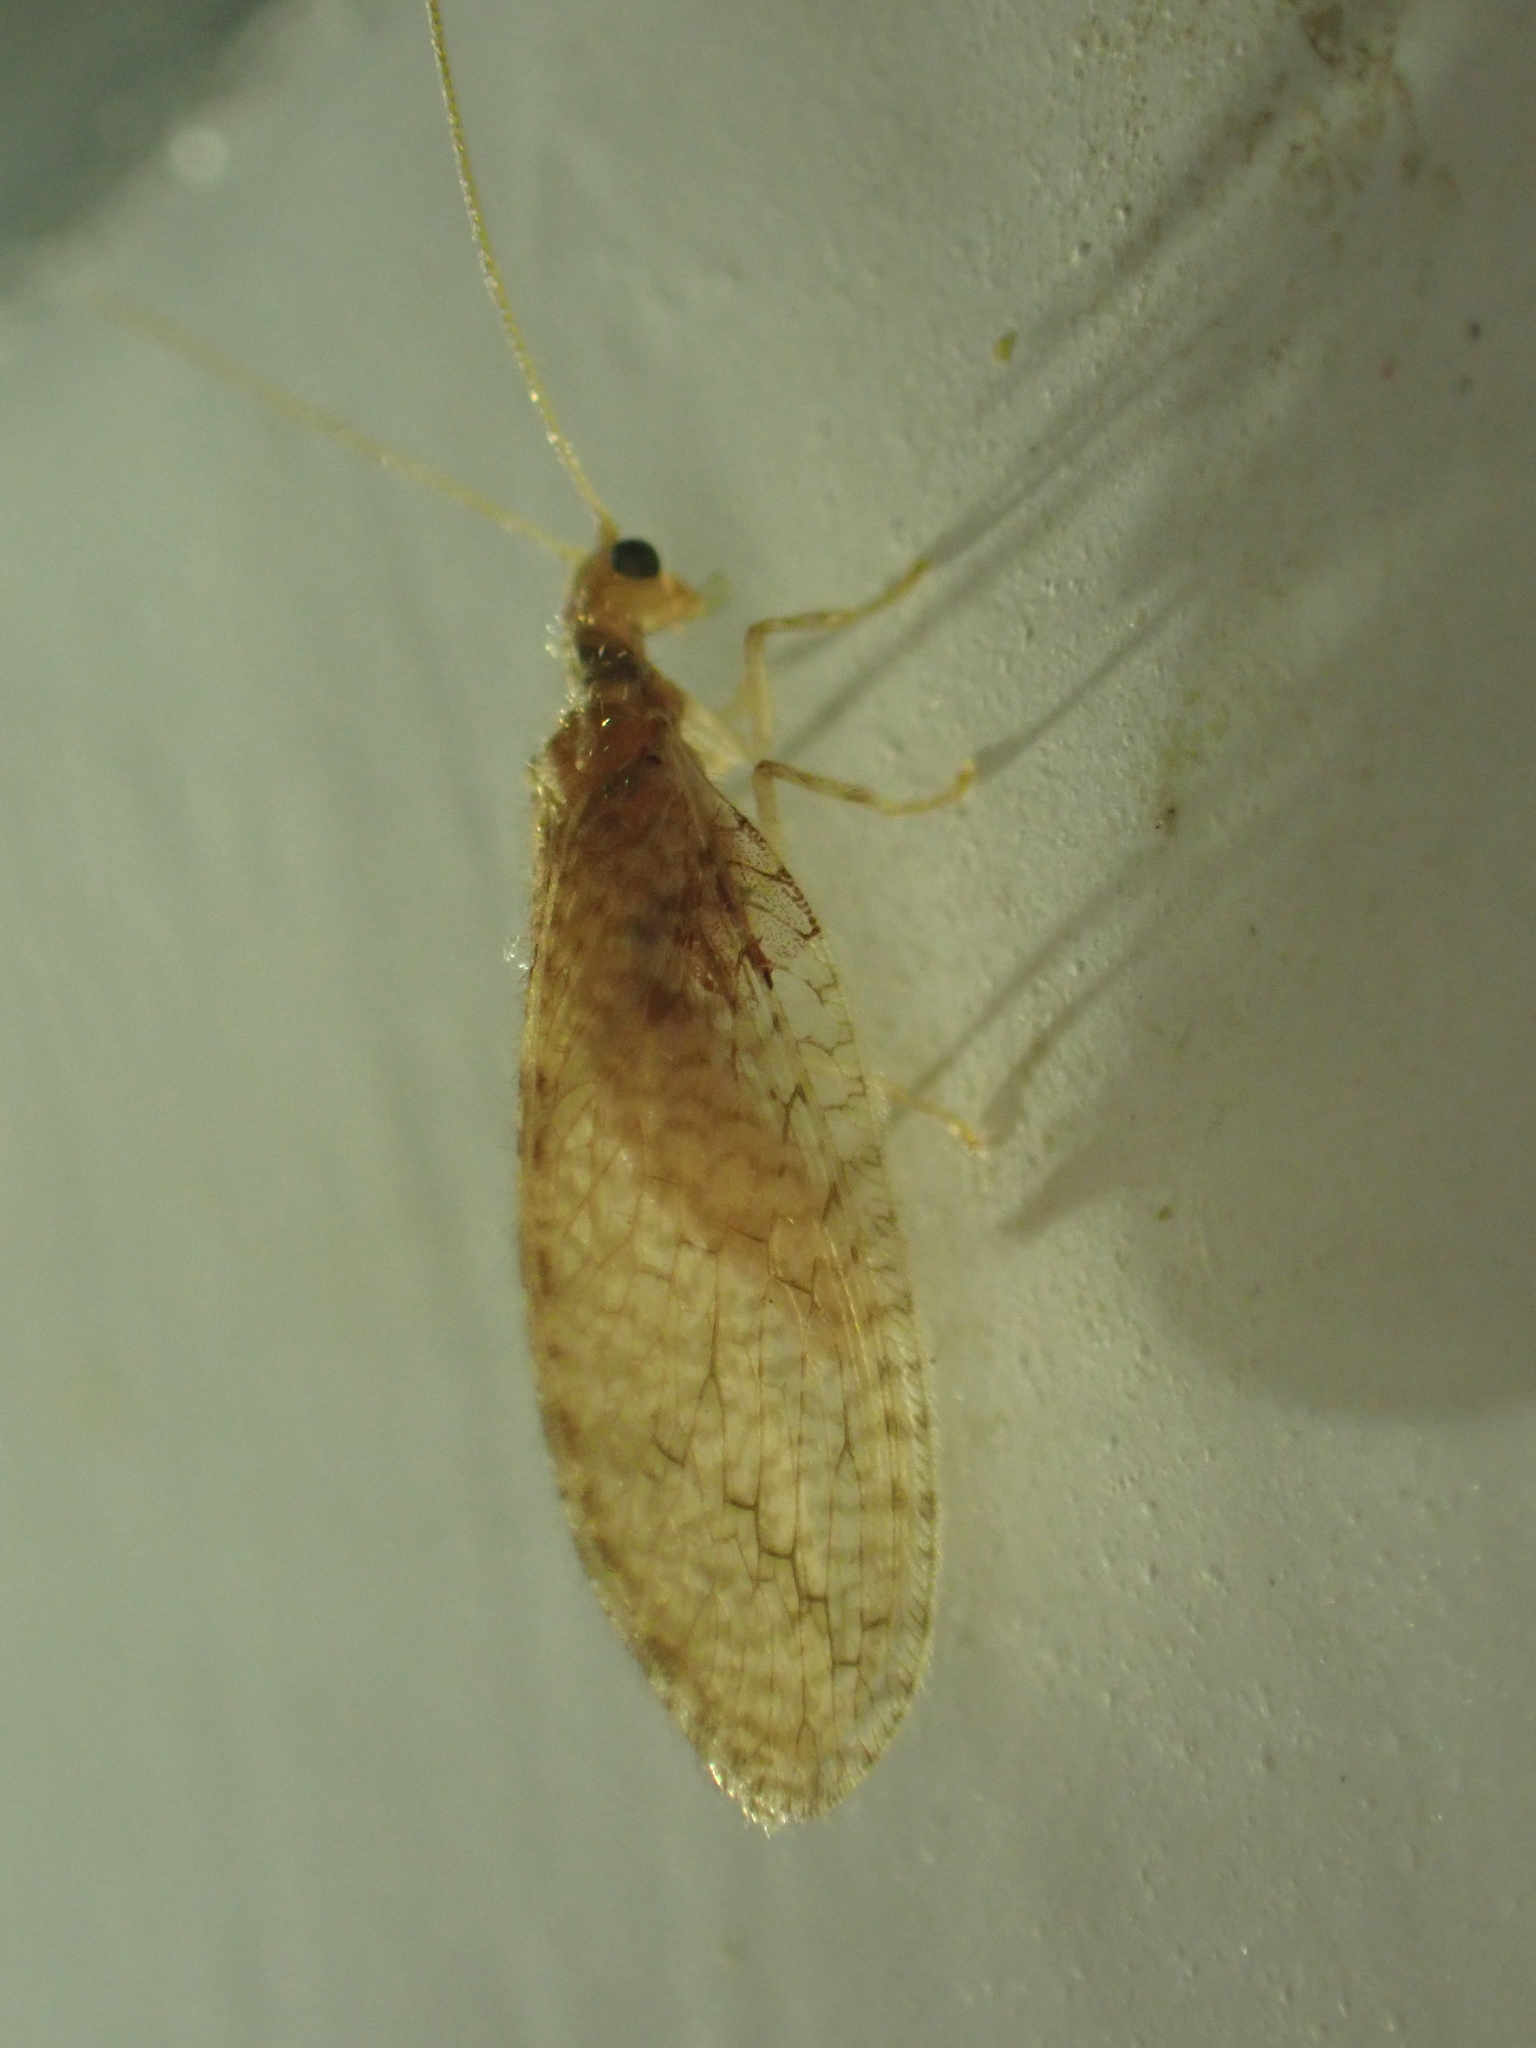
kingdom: Animalia
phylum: Arthropoda
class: Insecta
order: Neuroptera
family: Hemerobiidae
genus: Micromus
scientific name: Micromus posticus
